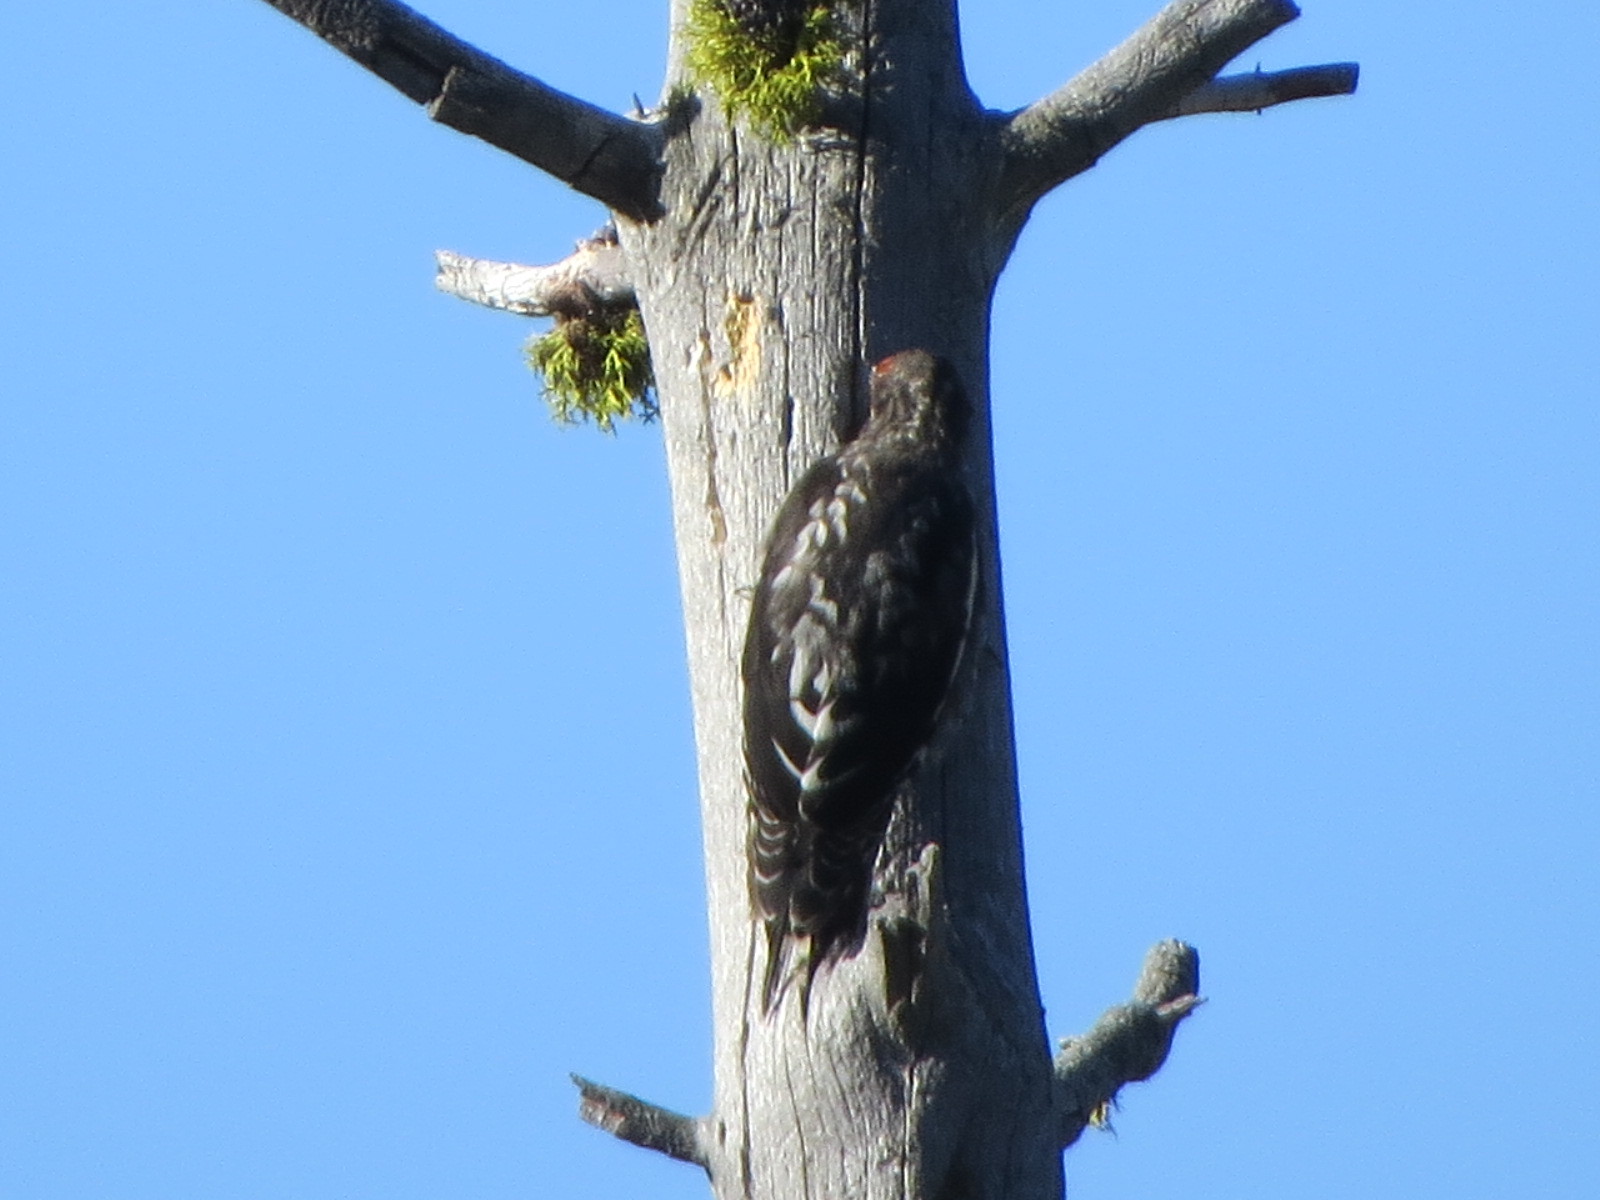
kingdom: Animalia
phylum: Chordata
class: Aves
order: Piciformes
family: Picidae
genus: Sphyrapicus
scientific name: Sphyrapicus ruber
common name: Red-breasted sapsucker
